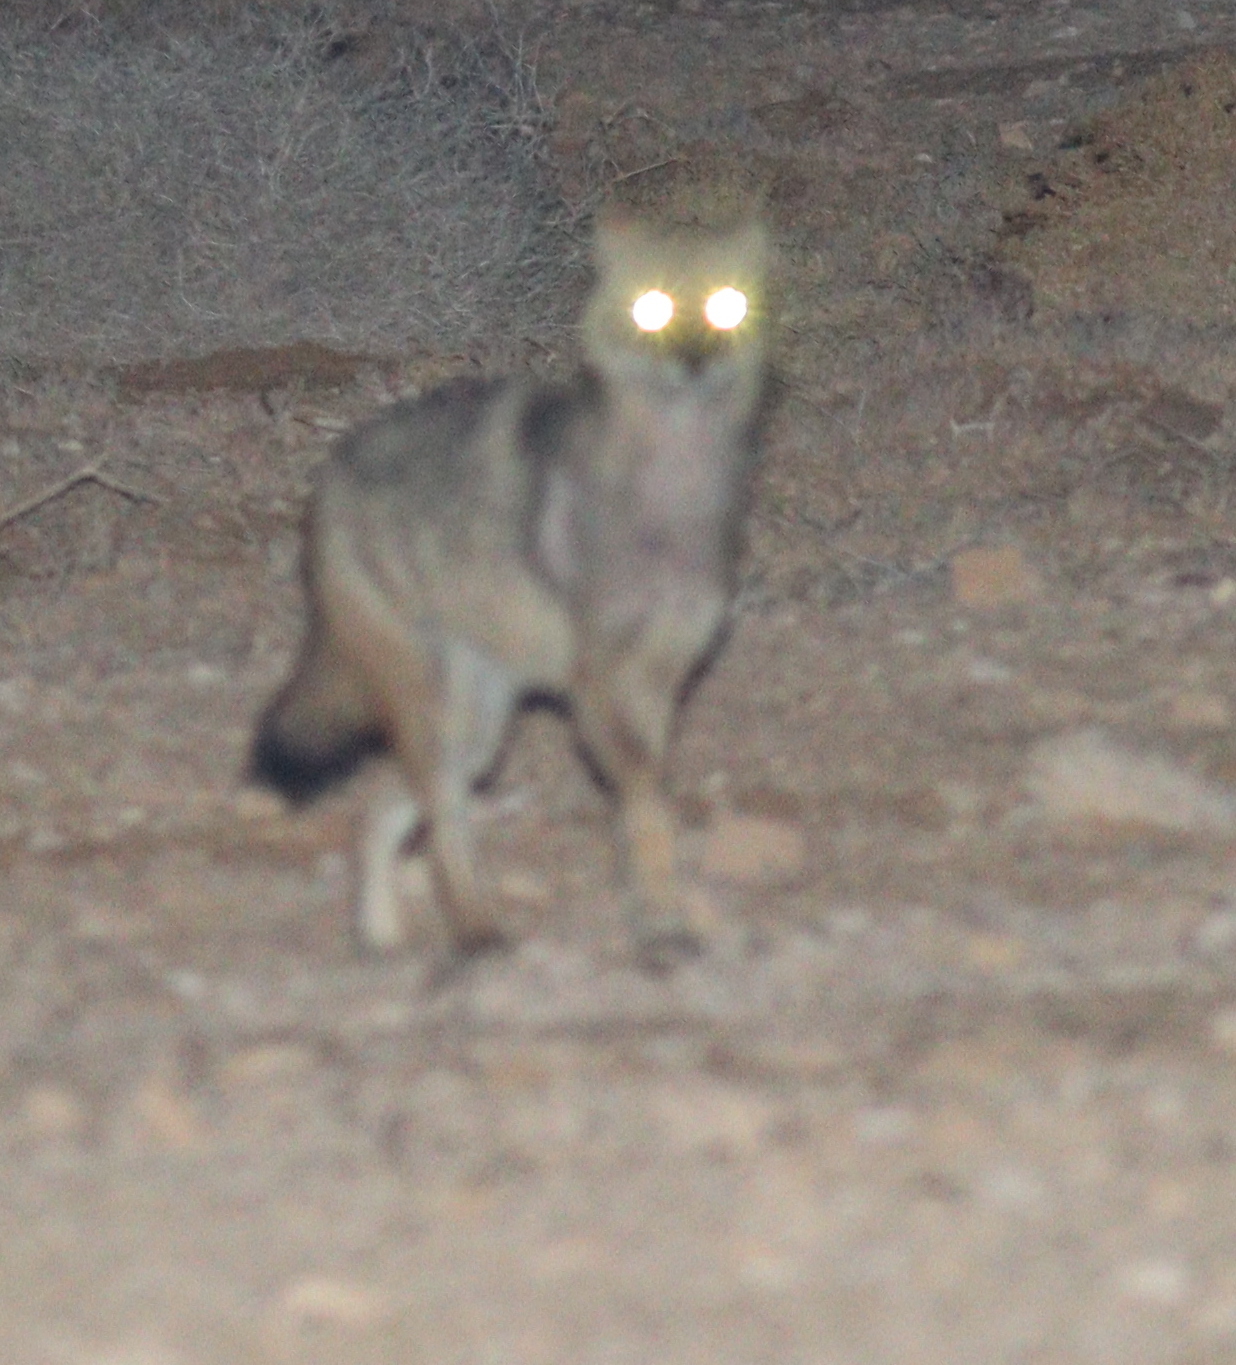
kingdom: Animalia
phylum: Chordata
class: Mammalia
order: Carnivora
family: Canidae
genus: Canis
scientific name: Canis aureus
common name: Golden jackal
